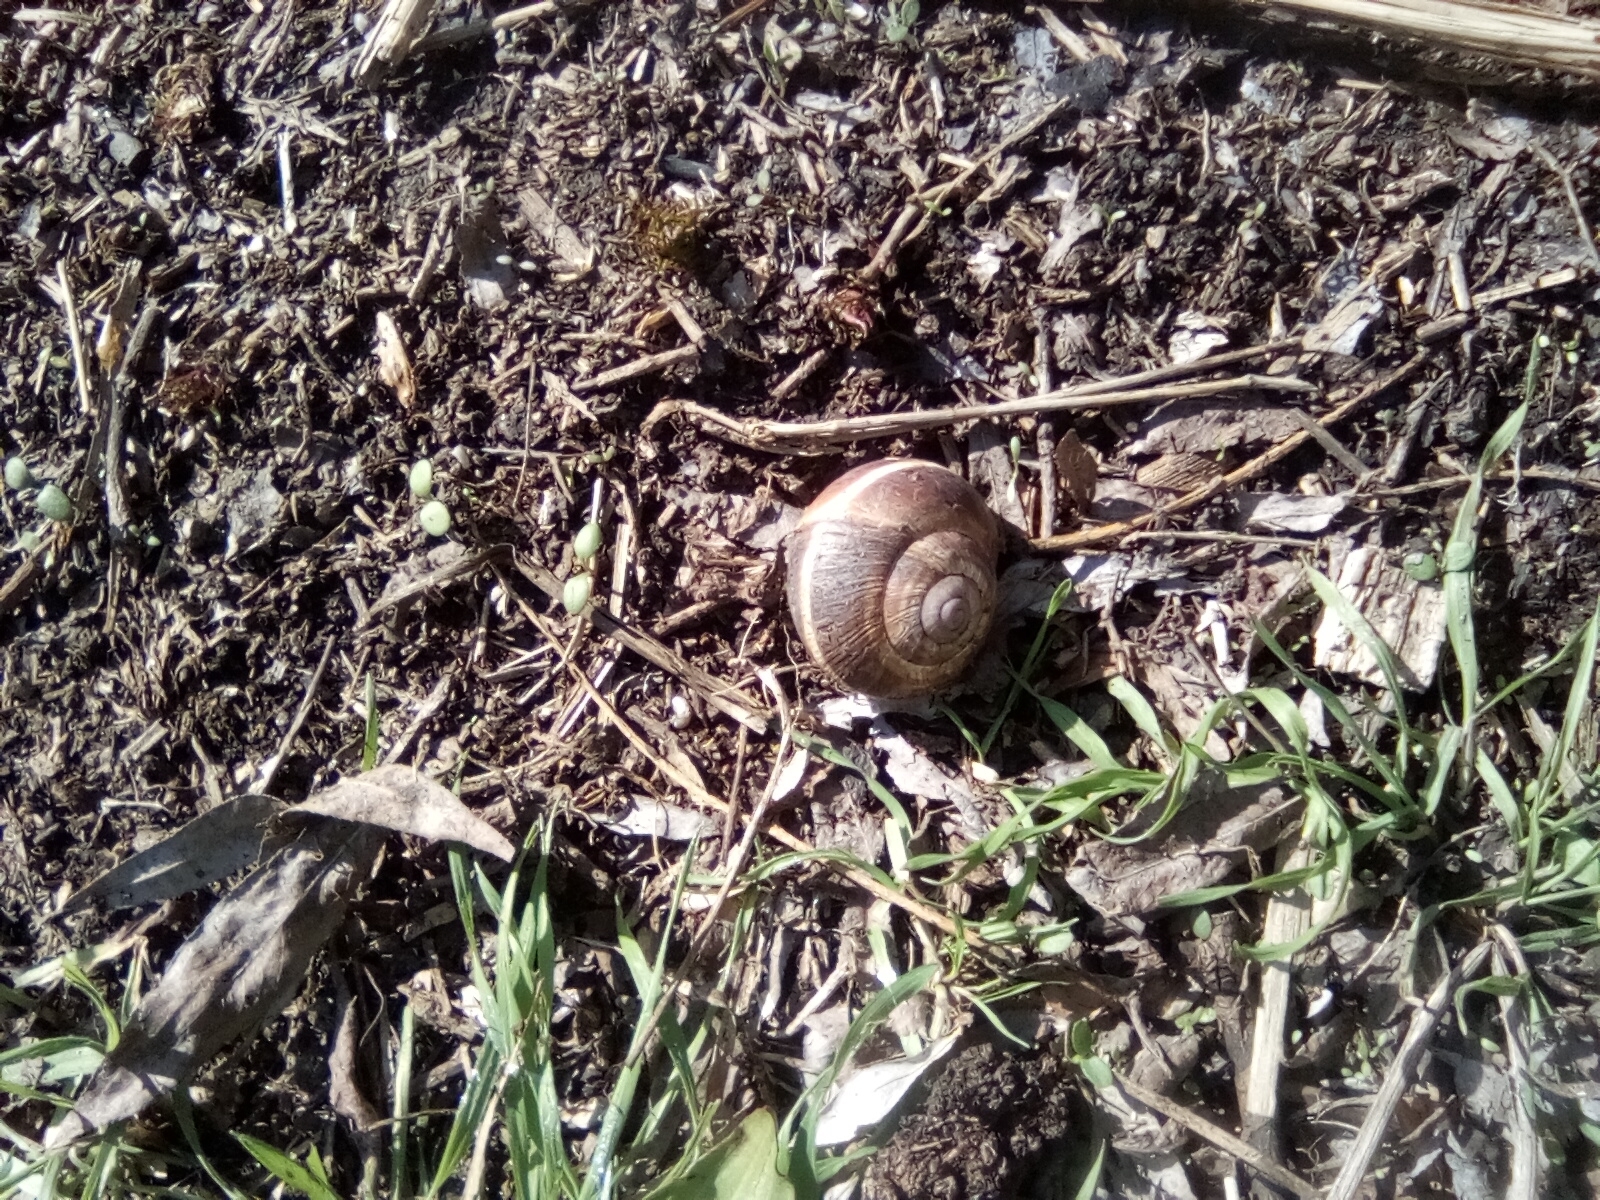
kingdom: Animalia
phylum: Mollusca
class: Gastropoda
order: Stylommatophora
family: Helicidae
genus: Helix
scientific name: Helix lucorum
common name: Turkish snail
